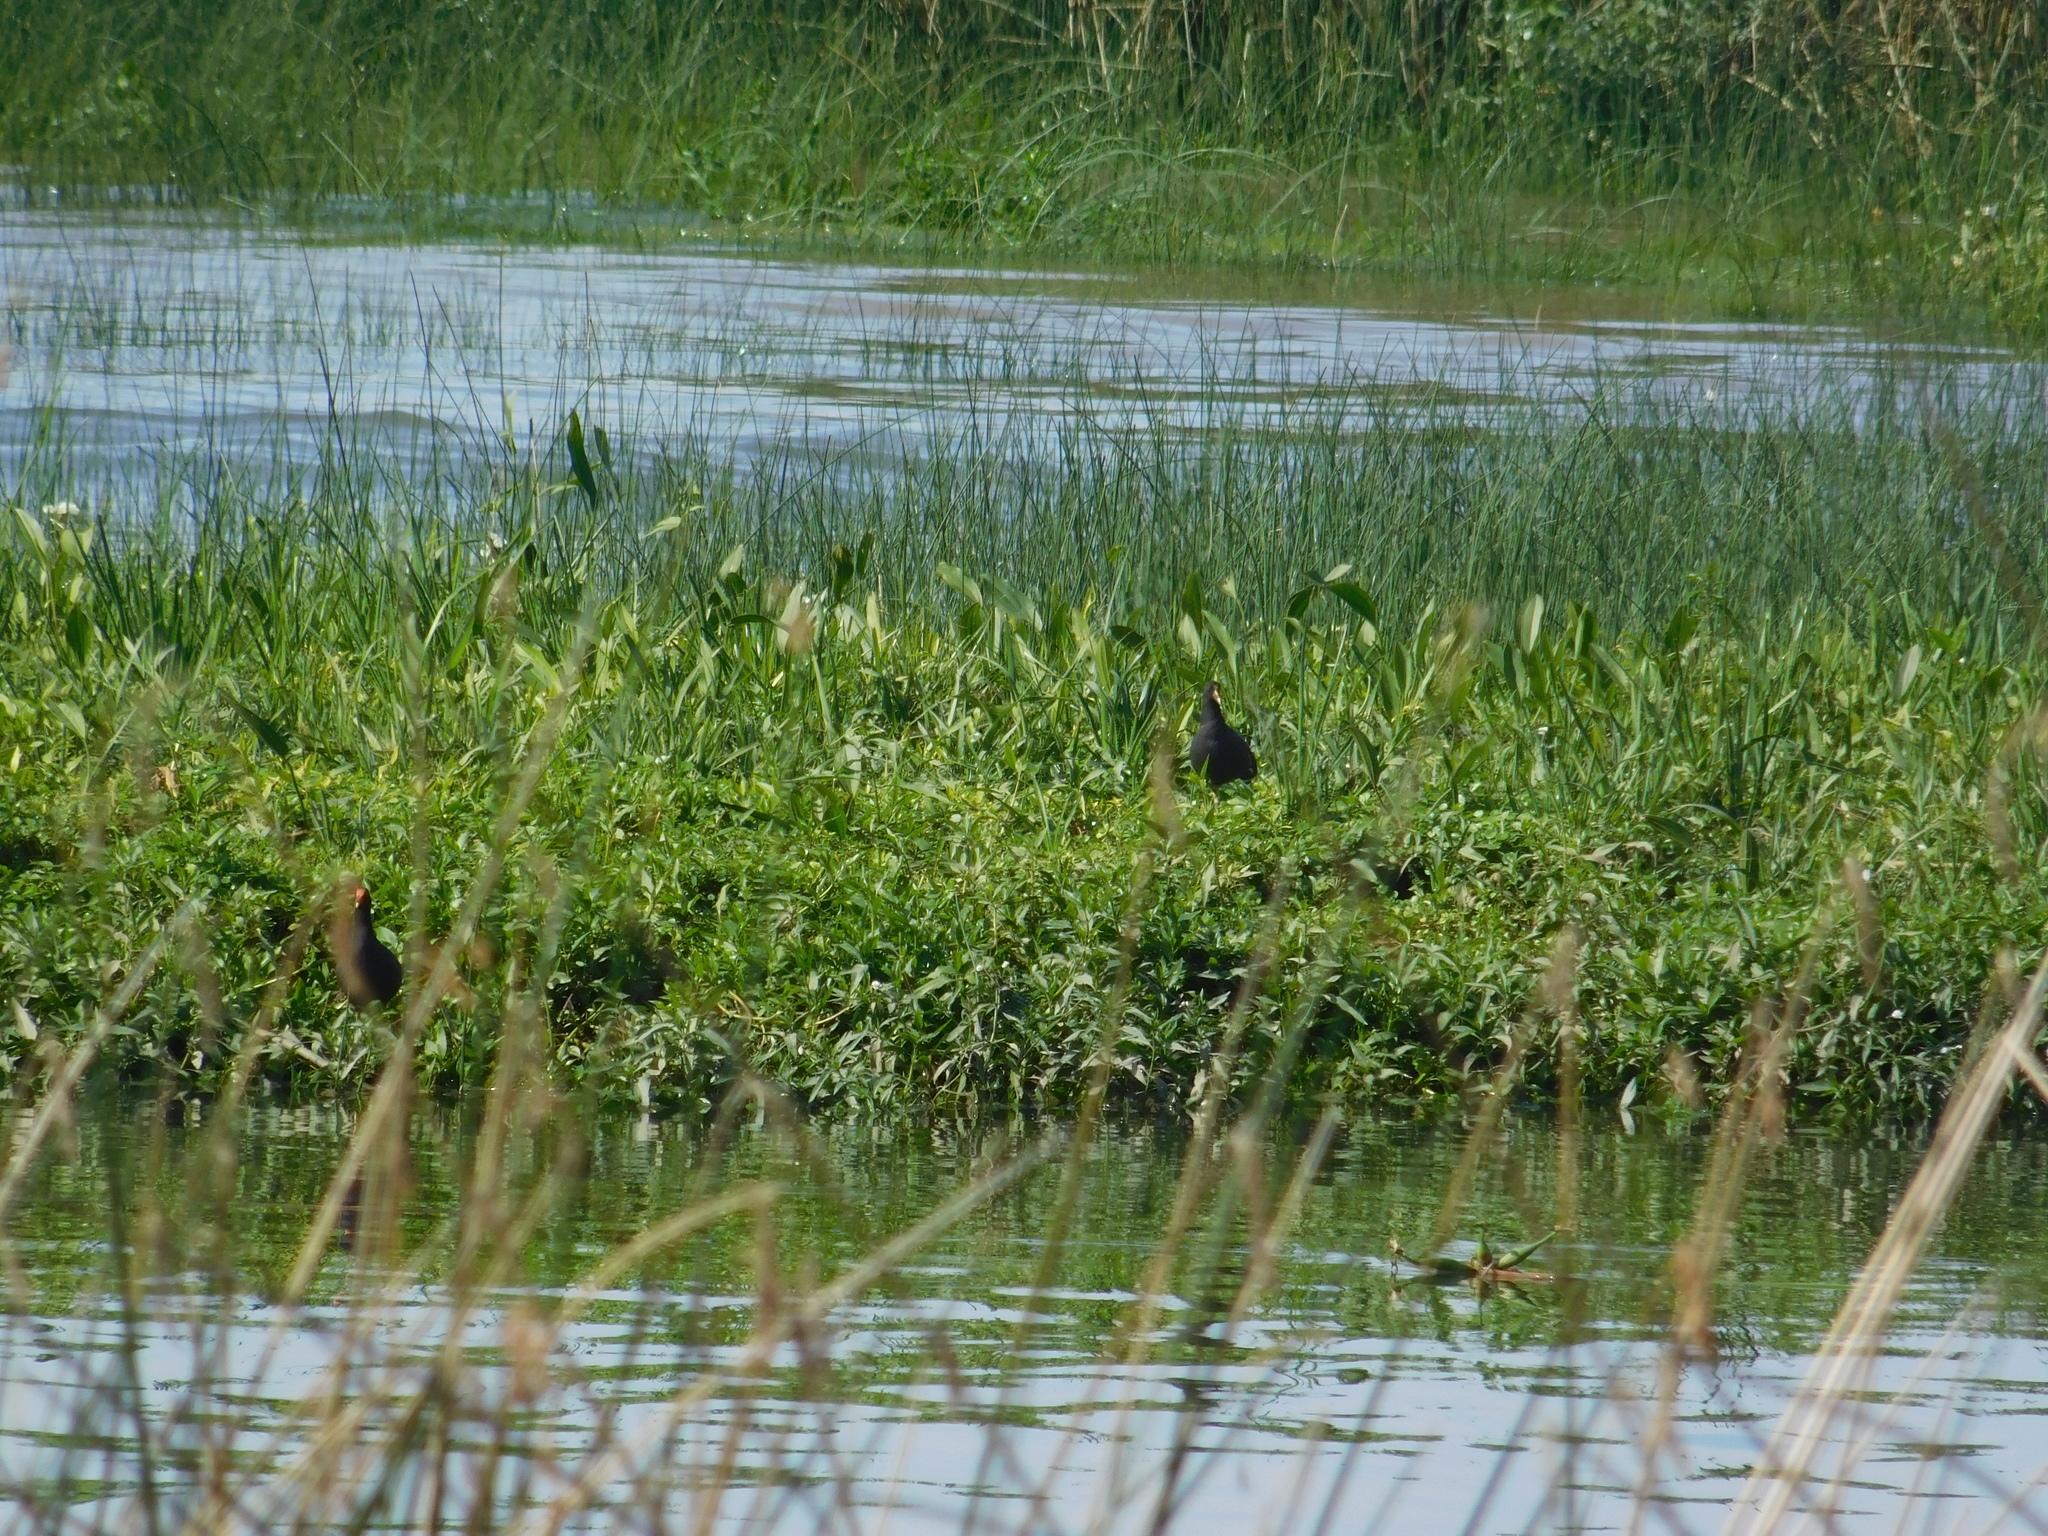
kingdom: Animalia
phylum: Chordata
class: Aves
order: Gruiformes
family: Rallidae
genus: Gallinula
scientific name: Gallinula chloropus
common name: Common moorhen
